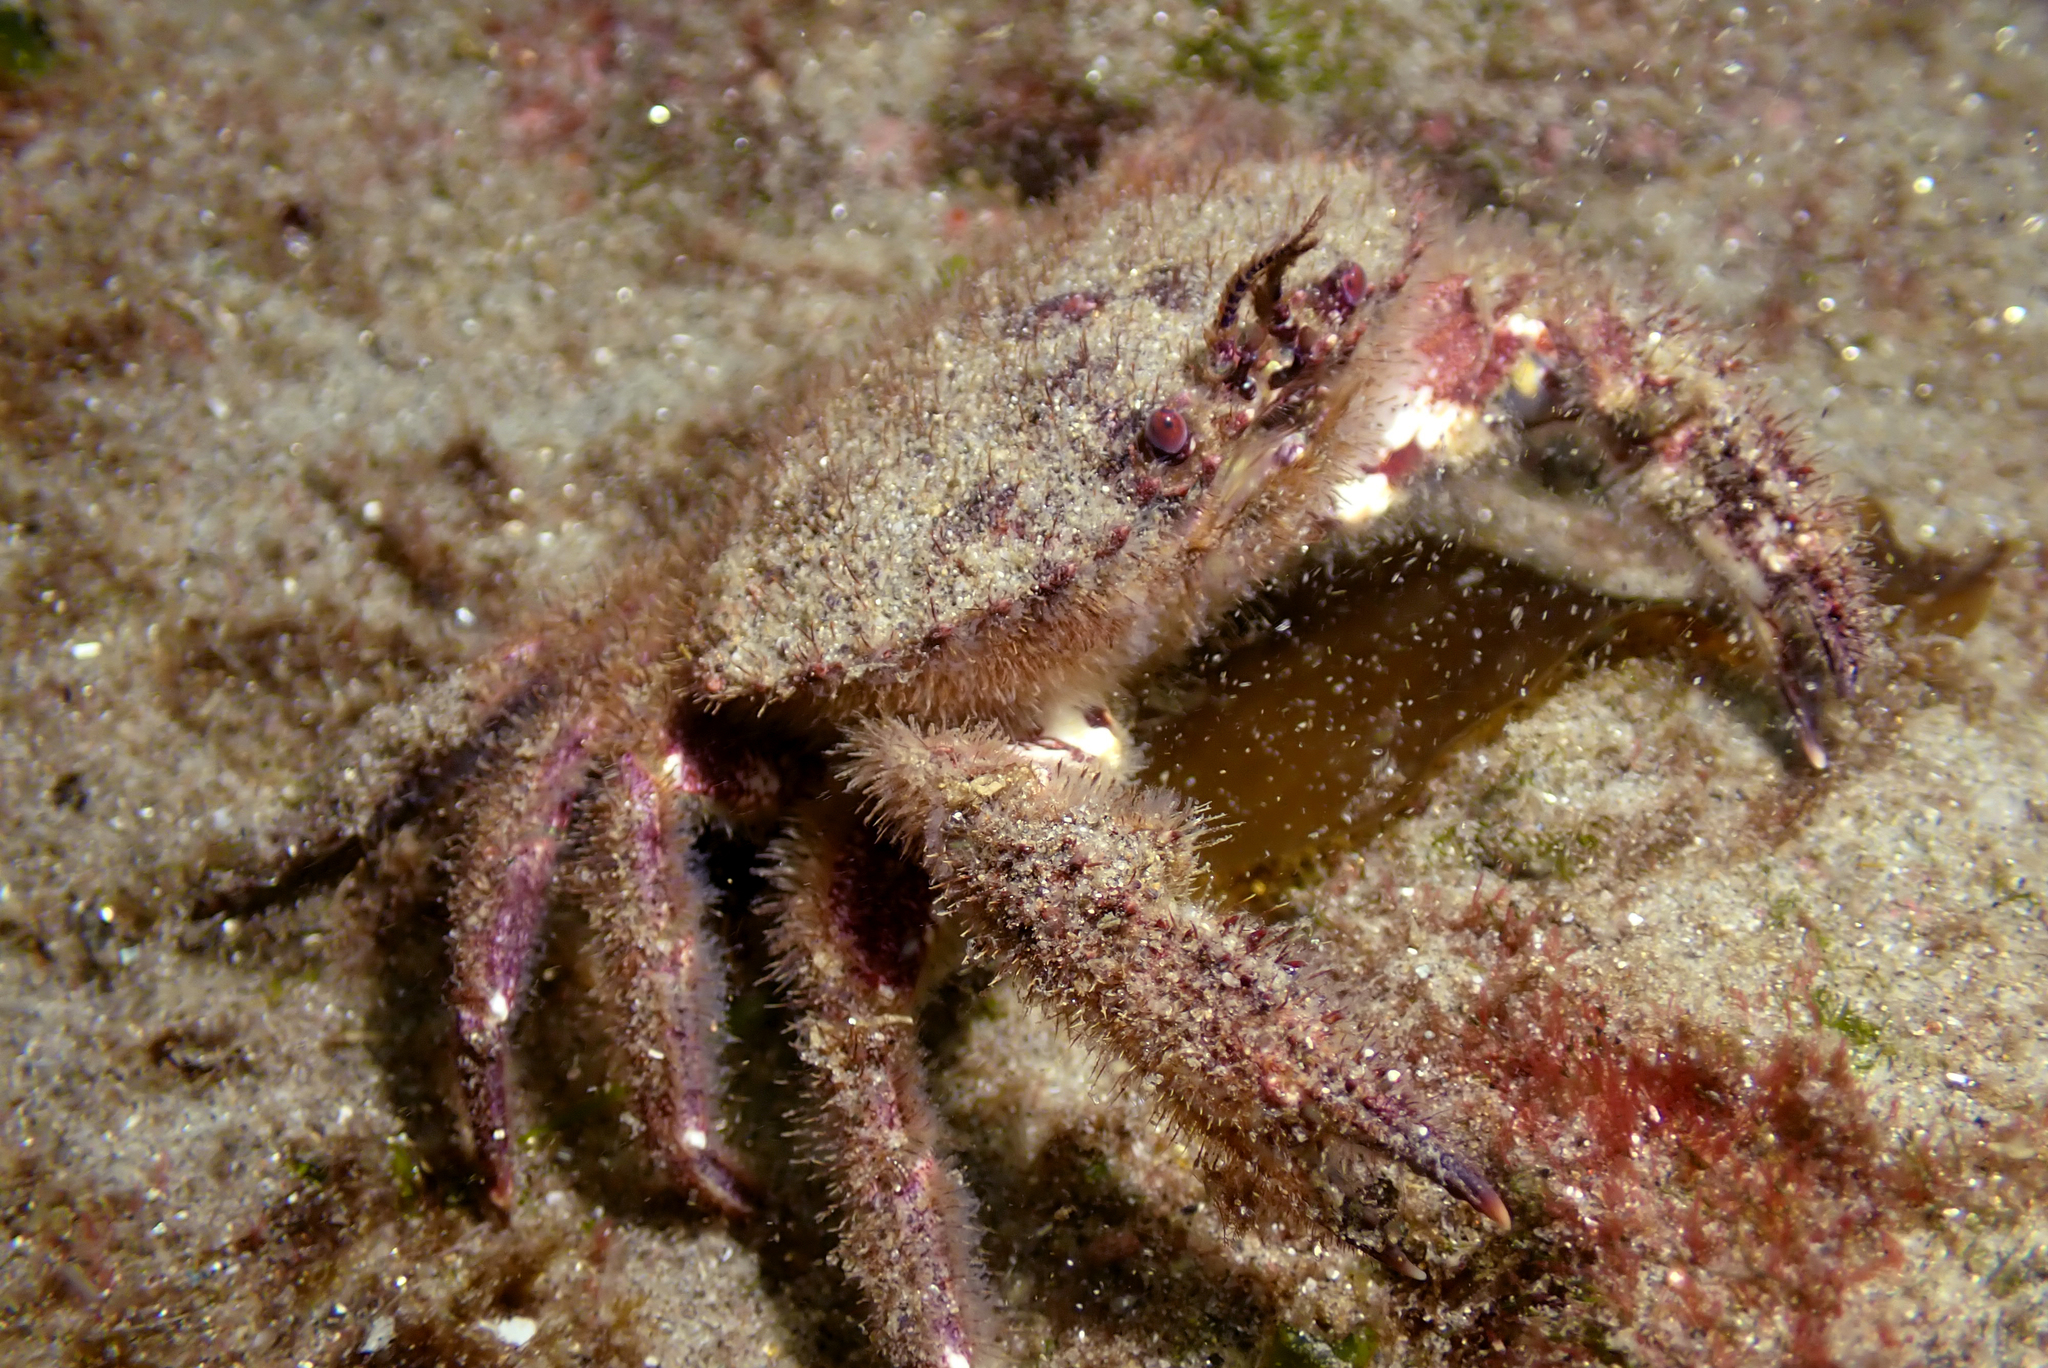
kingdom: Animalia
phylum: Arthropoda
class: Malacostraca
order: Decapoda
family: Cancridae
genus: Romaleon
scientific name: Romaleon setosum
